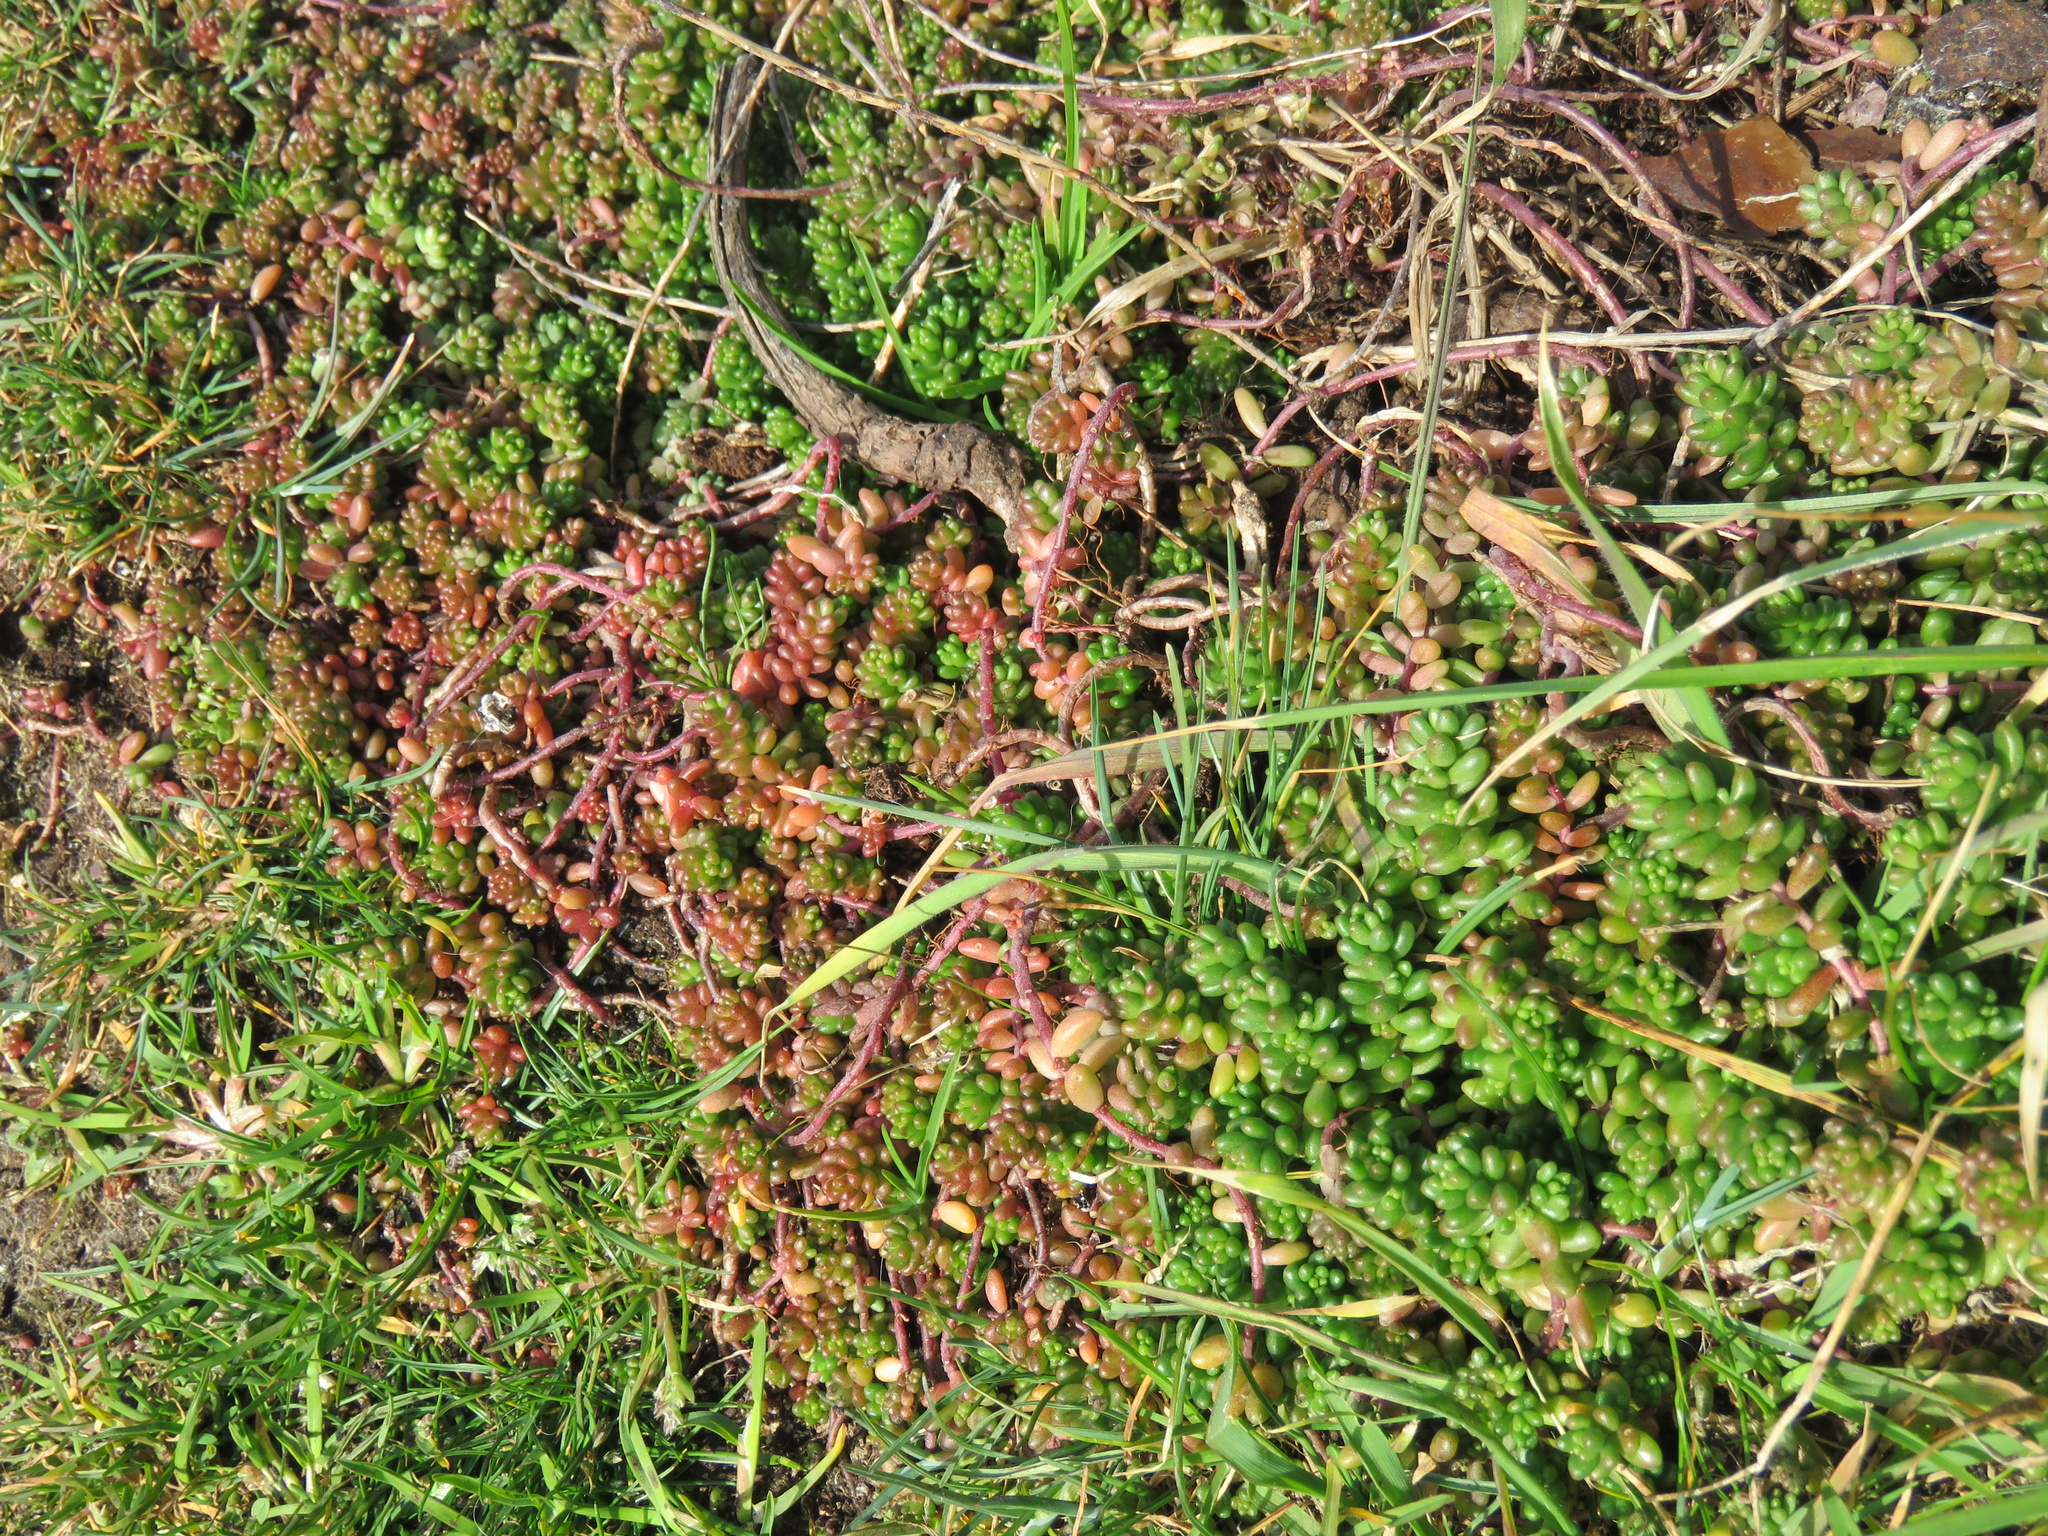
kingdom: Plantae
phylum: Tracheophyta
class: Magnoliopsida
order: Saxifragales
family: Crassulaceae
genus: Sedum
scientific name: Sedum album
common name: White stonecrop
